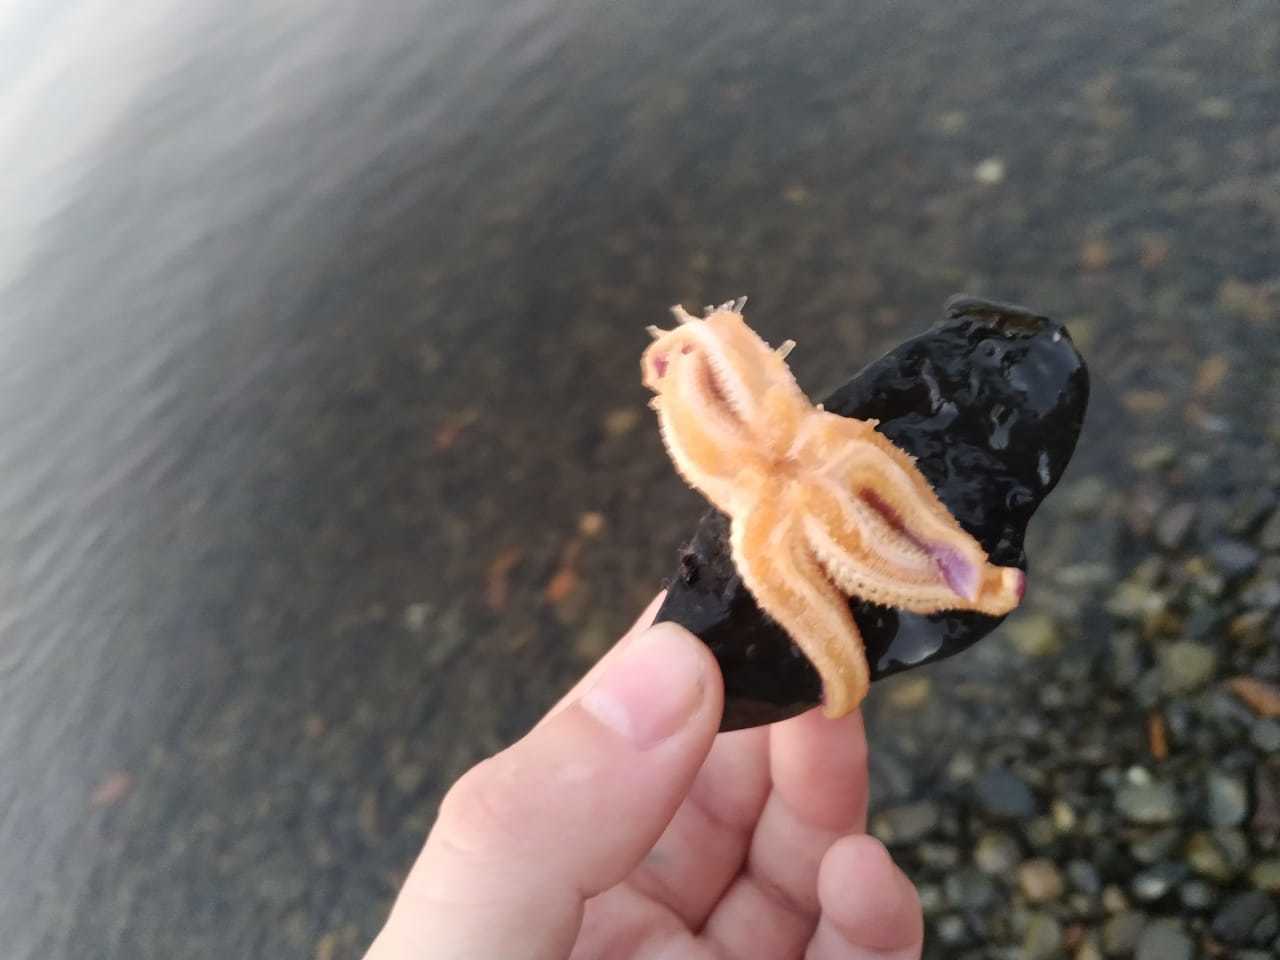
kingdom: Animalia
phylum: Echinodermata
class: Asteroidea
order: Forcipulatida
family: Asteriidae
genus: Asterias
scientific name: Asterias amurensis
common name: Flat-bottomed star
